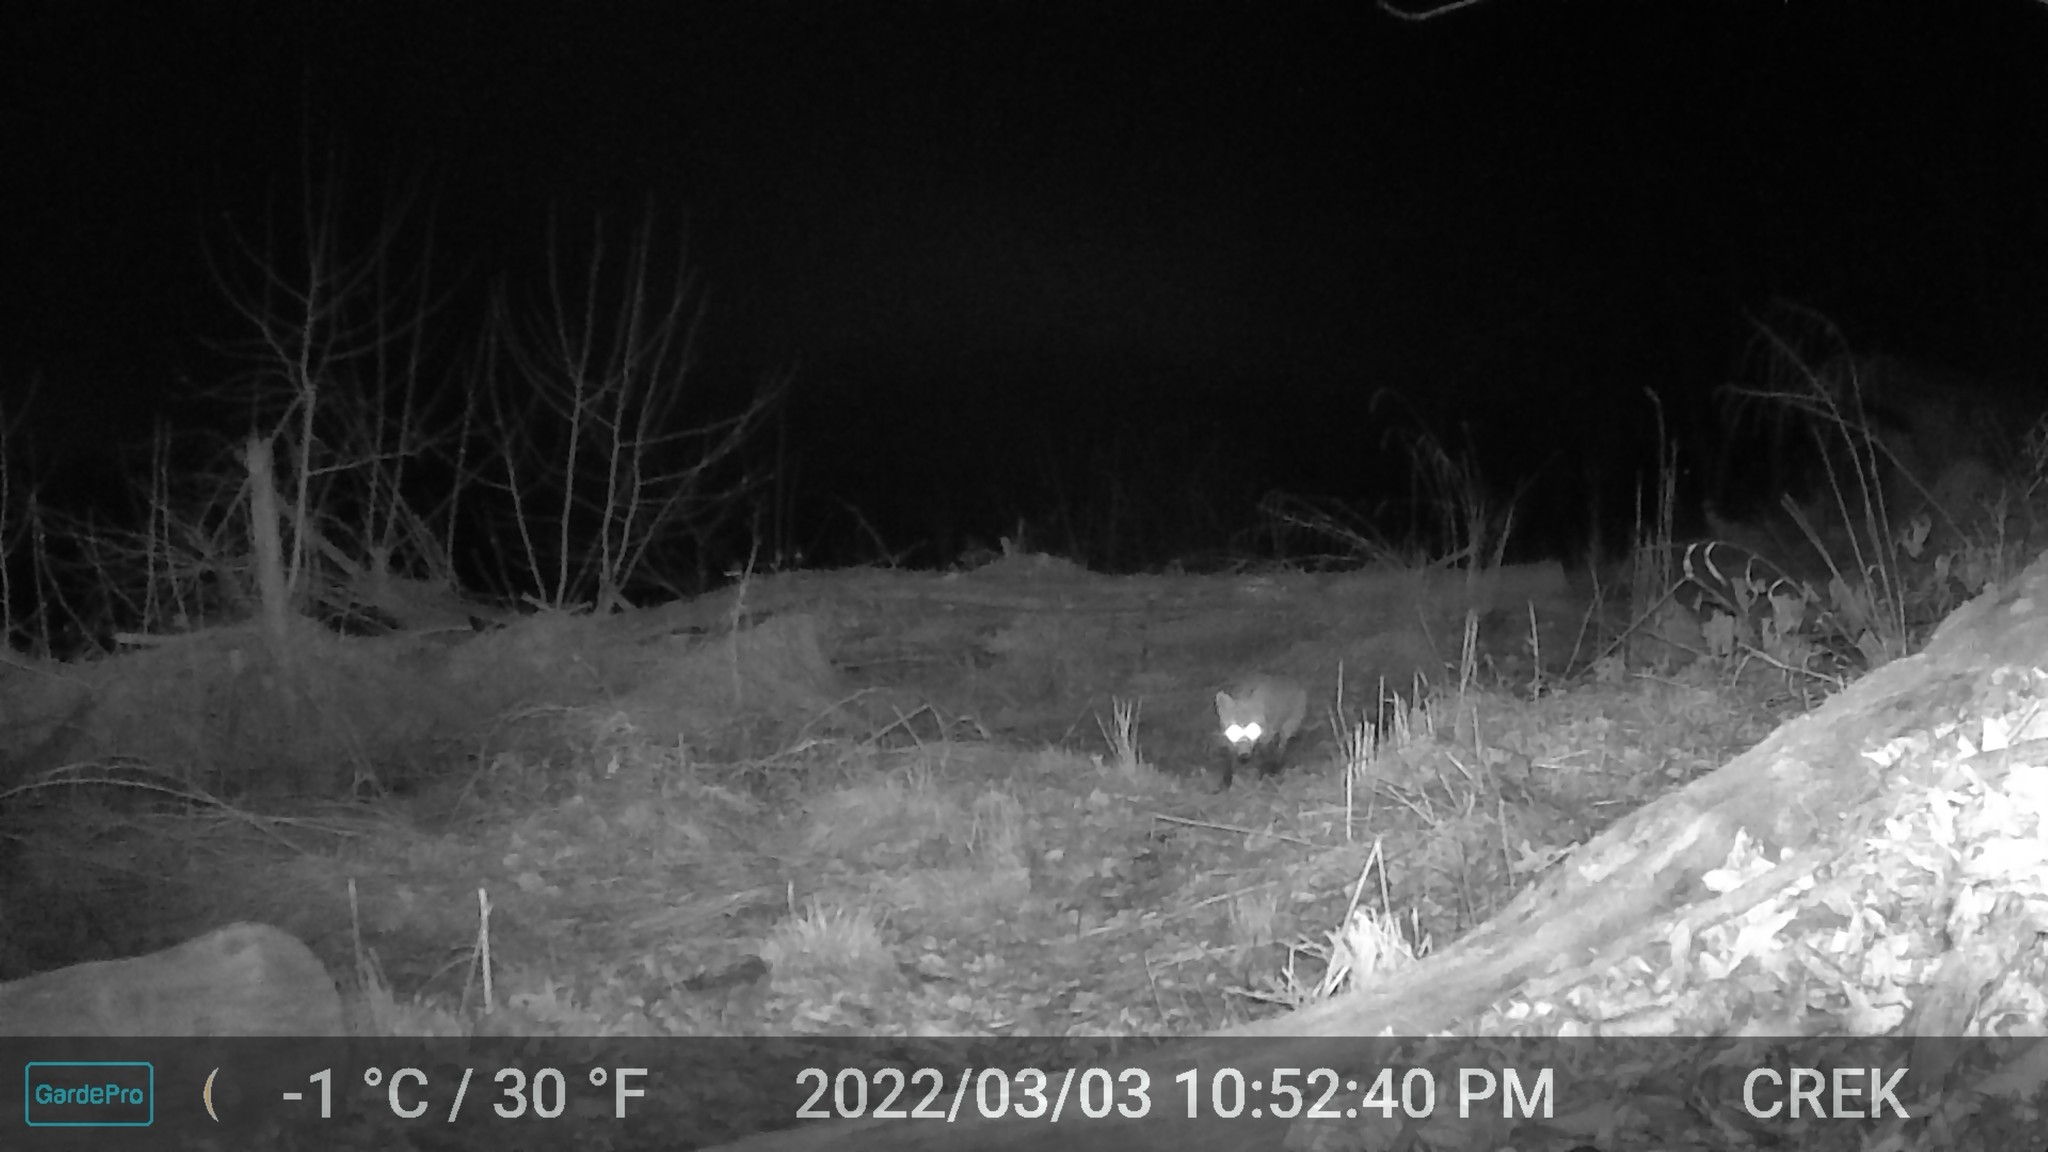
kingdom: Animalia
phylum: Chordata
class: Mammalia
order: Carnivora
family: Canidae
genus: Vulpes
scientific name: Vulpes vulpes
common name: Red fox
